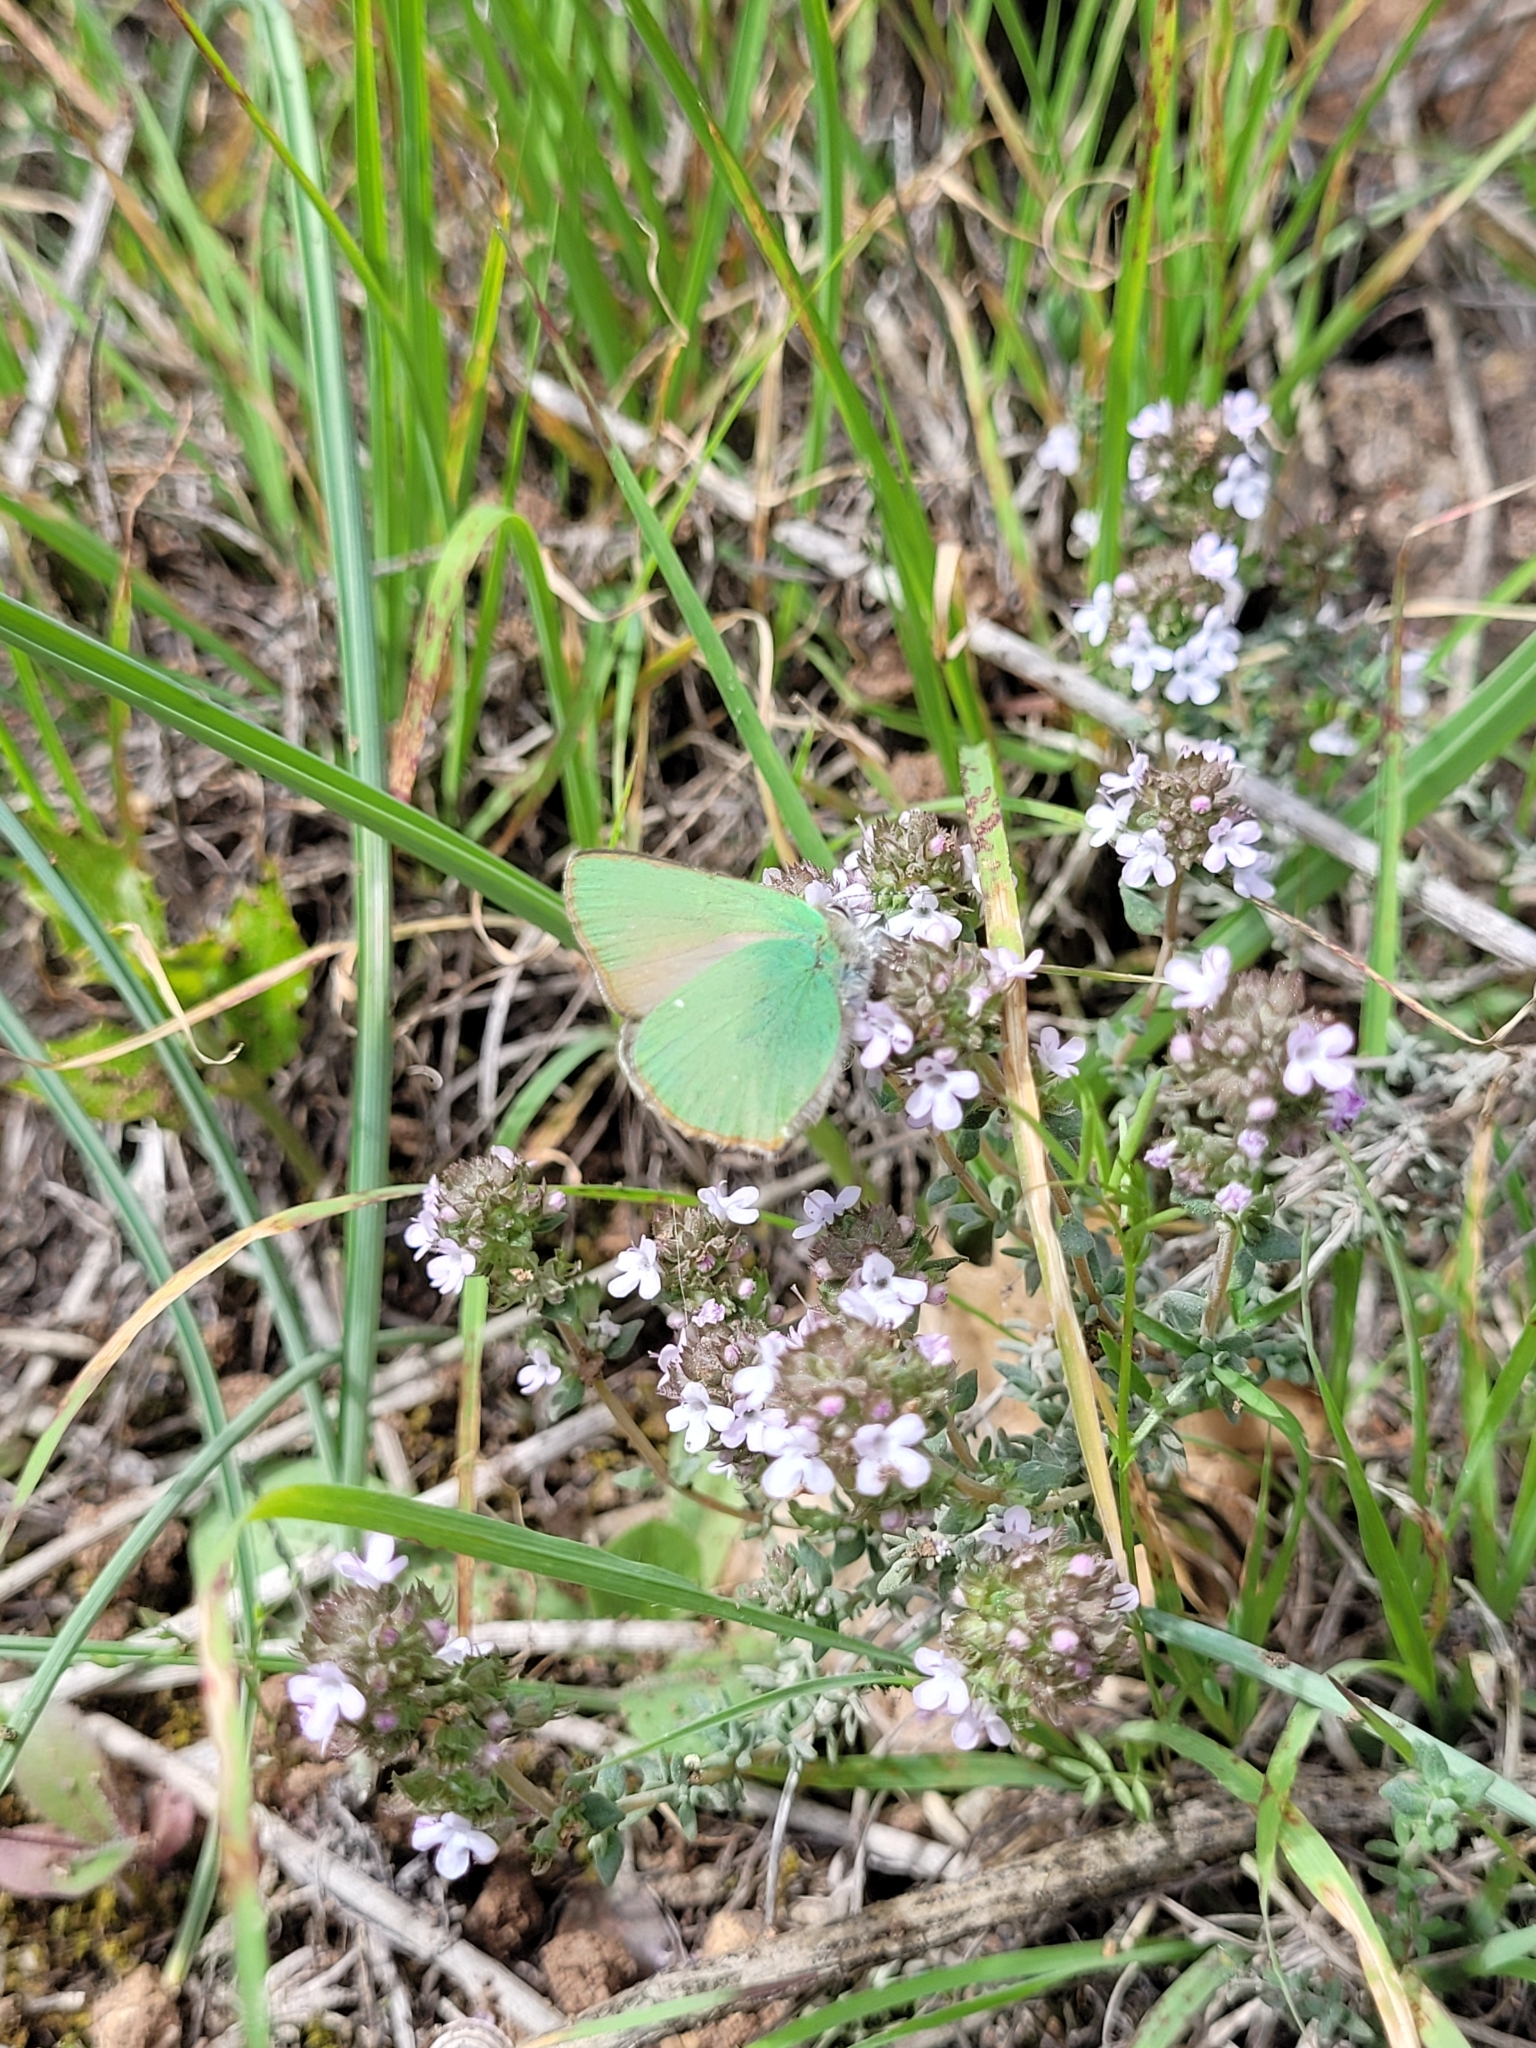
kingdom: Animalia
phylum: Arthropoda
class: Insecta
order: Lepidoptera
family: Lycaenidae
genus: Callophrys
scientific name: Callophrys rubi
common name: Green hairstreak
